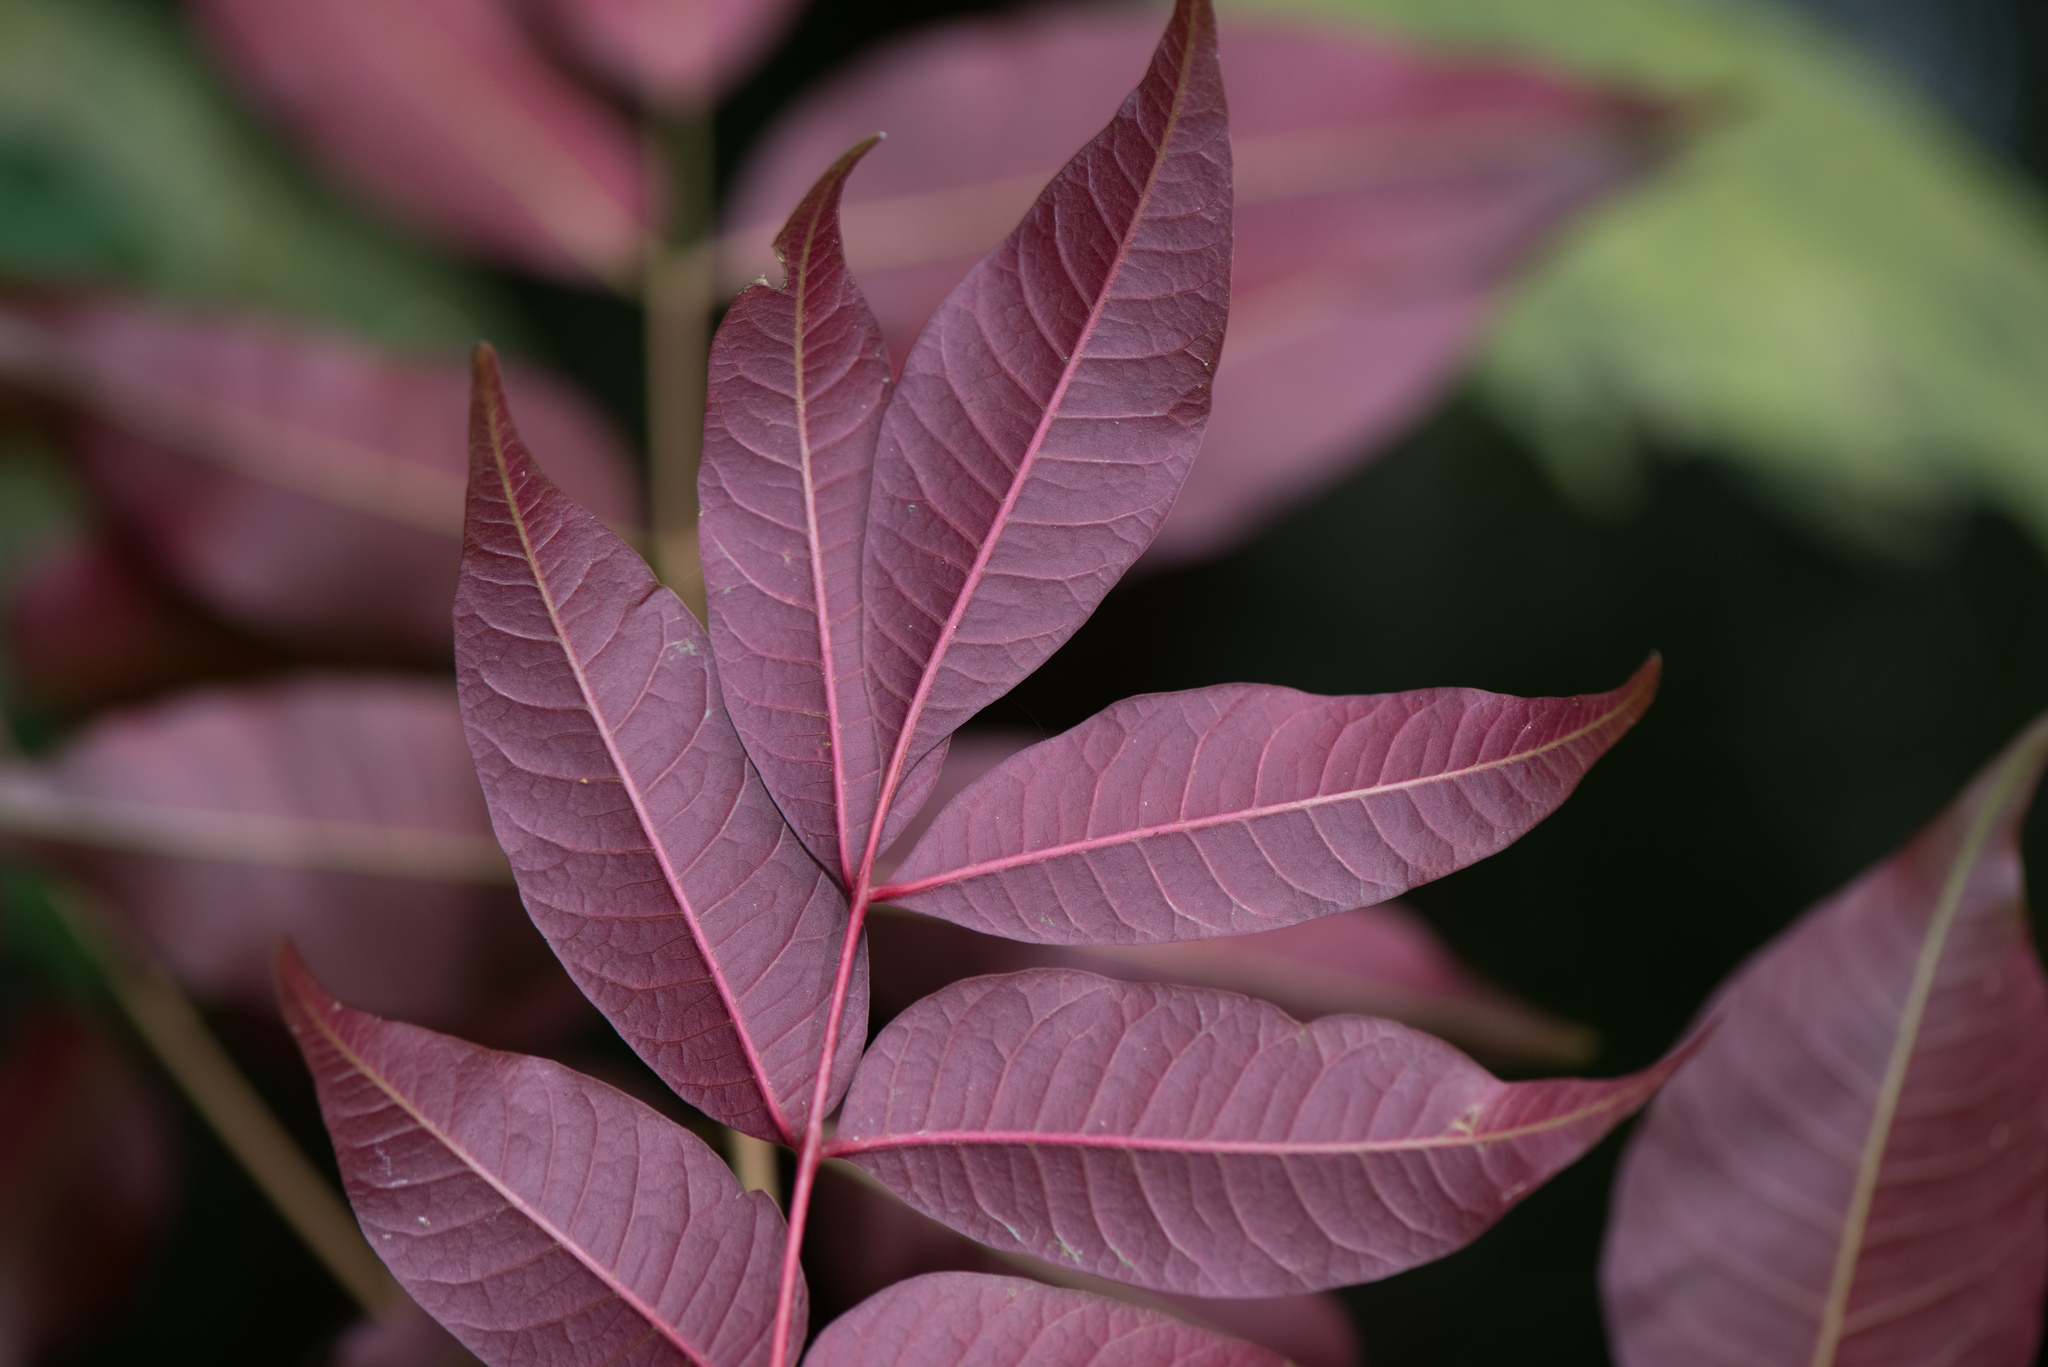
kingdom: Plantae
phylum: Tracheophyta
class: Magnoliopsida
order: Sapindales
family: Anacardiaceae
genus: Toxicodendron
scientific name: Toxicodendron succedaneum
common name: Wax tree
